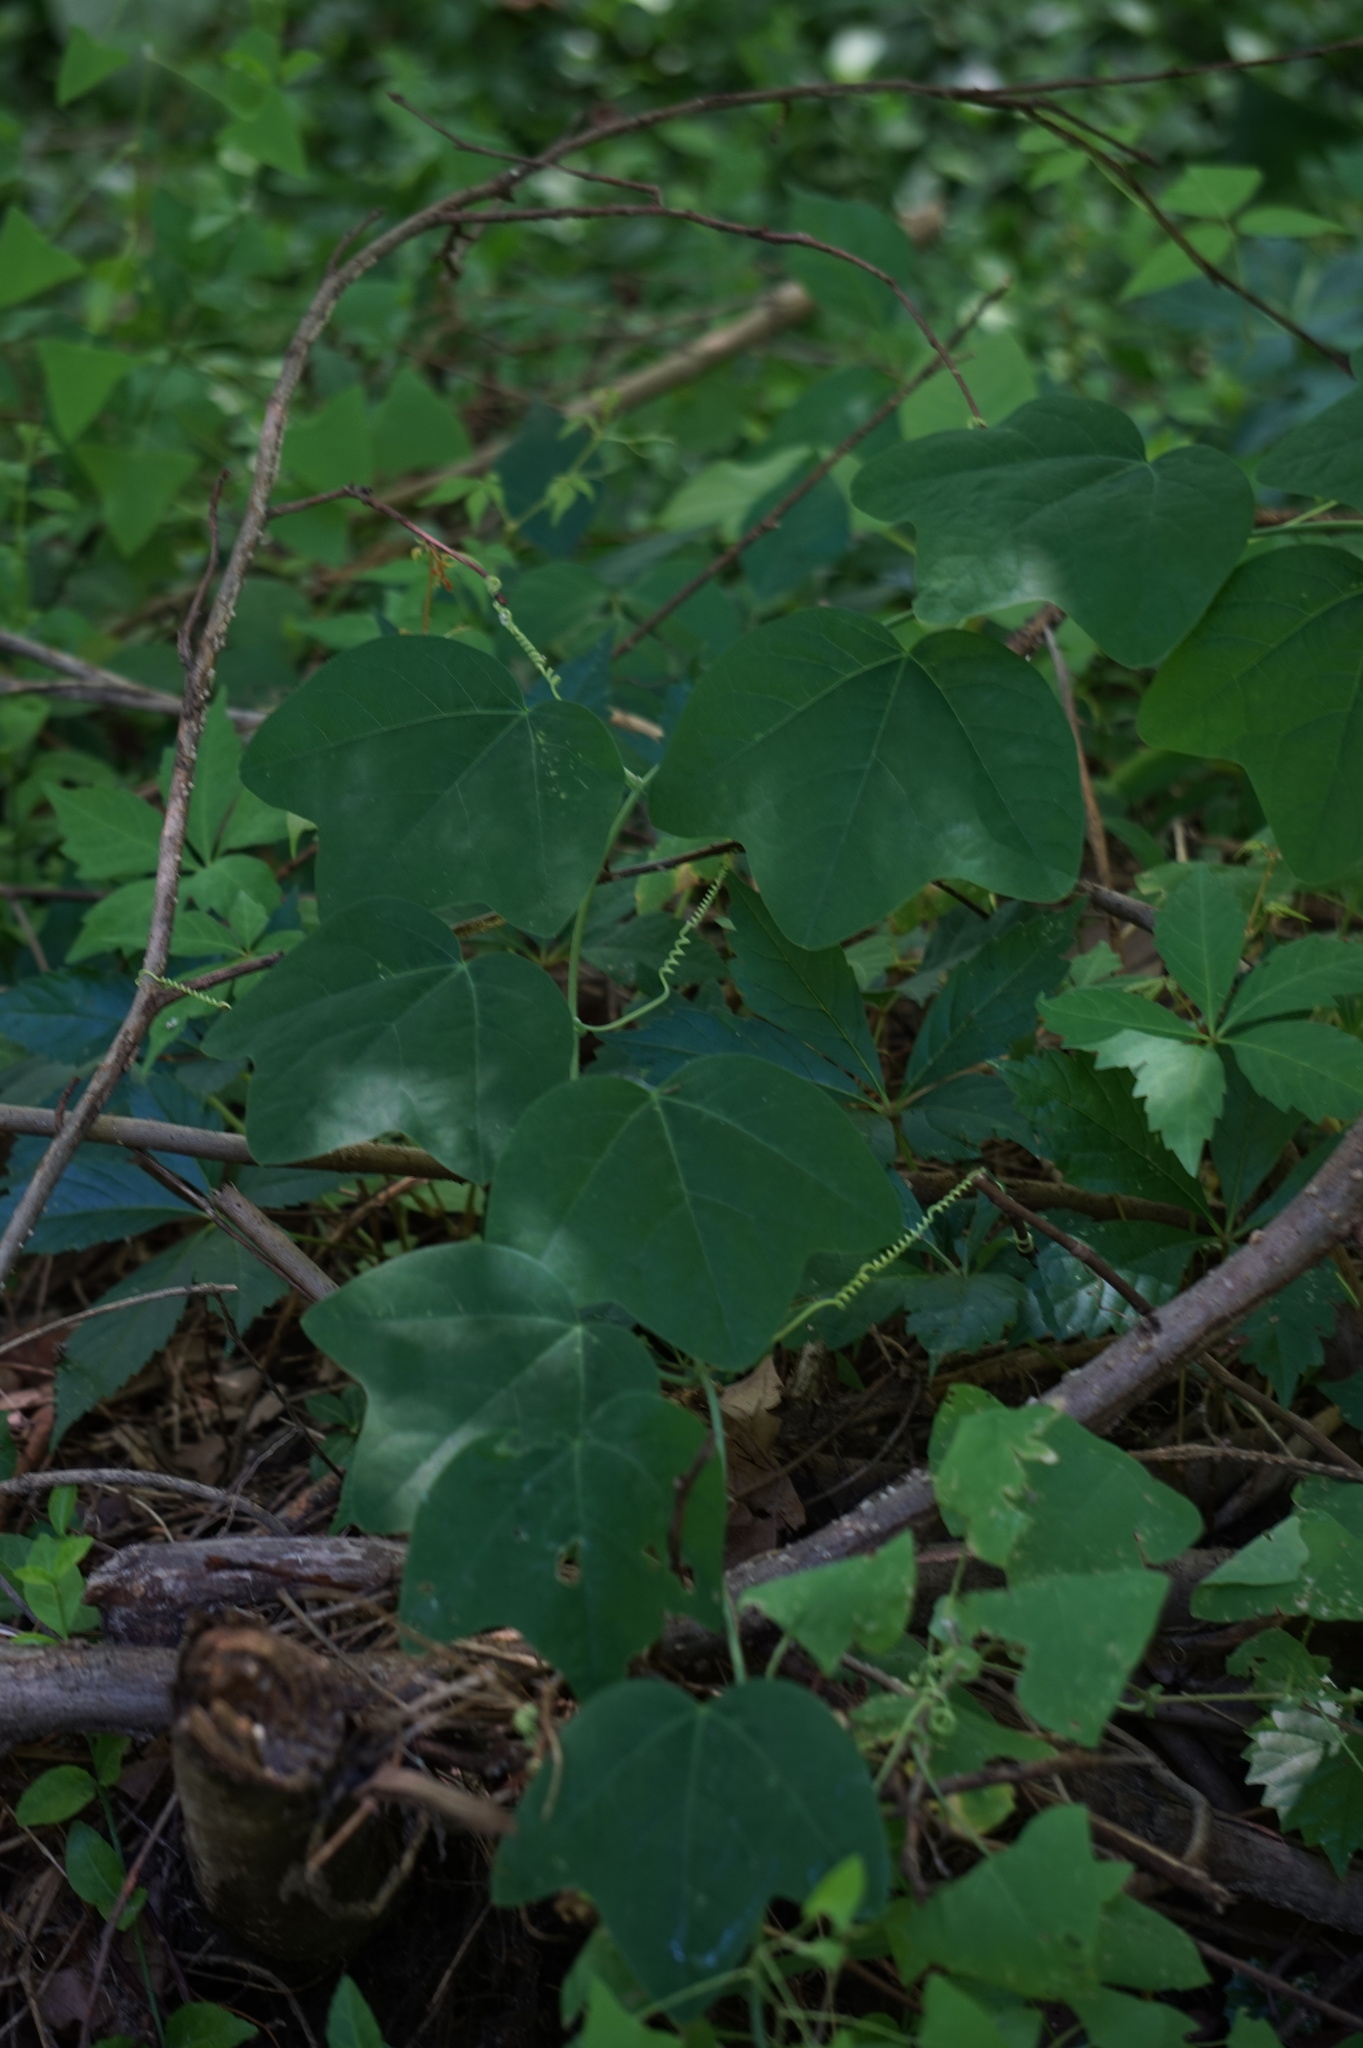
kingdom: Plantae
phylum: Tracheophyta
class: Magnoliopsida
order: Malpighiales
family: Passifloraceae
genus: Passiflora
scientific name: Passiflora lutea
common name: Yellow passionflower
